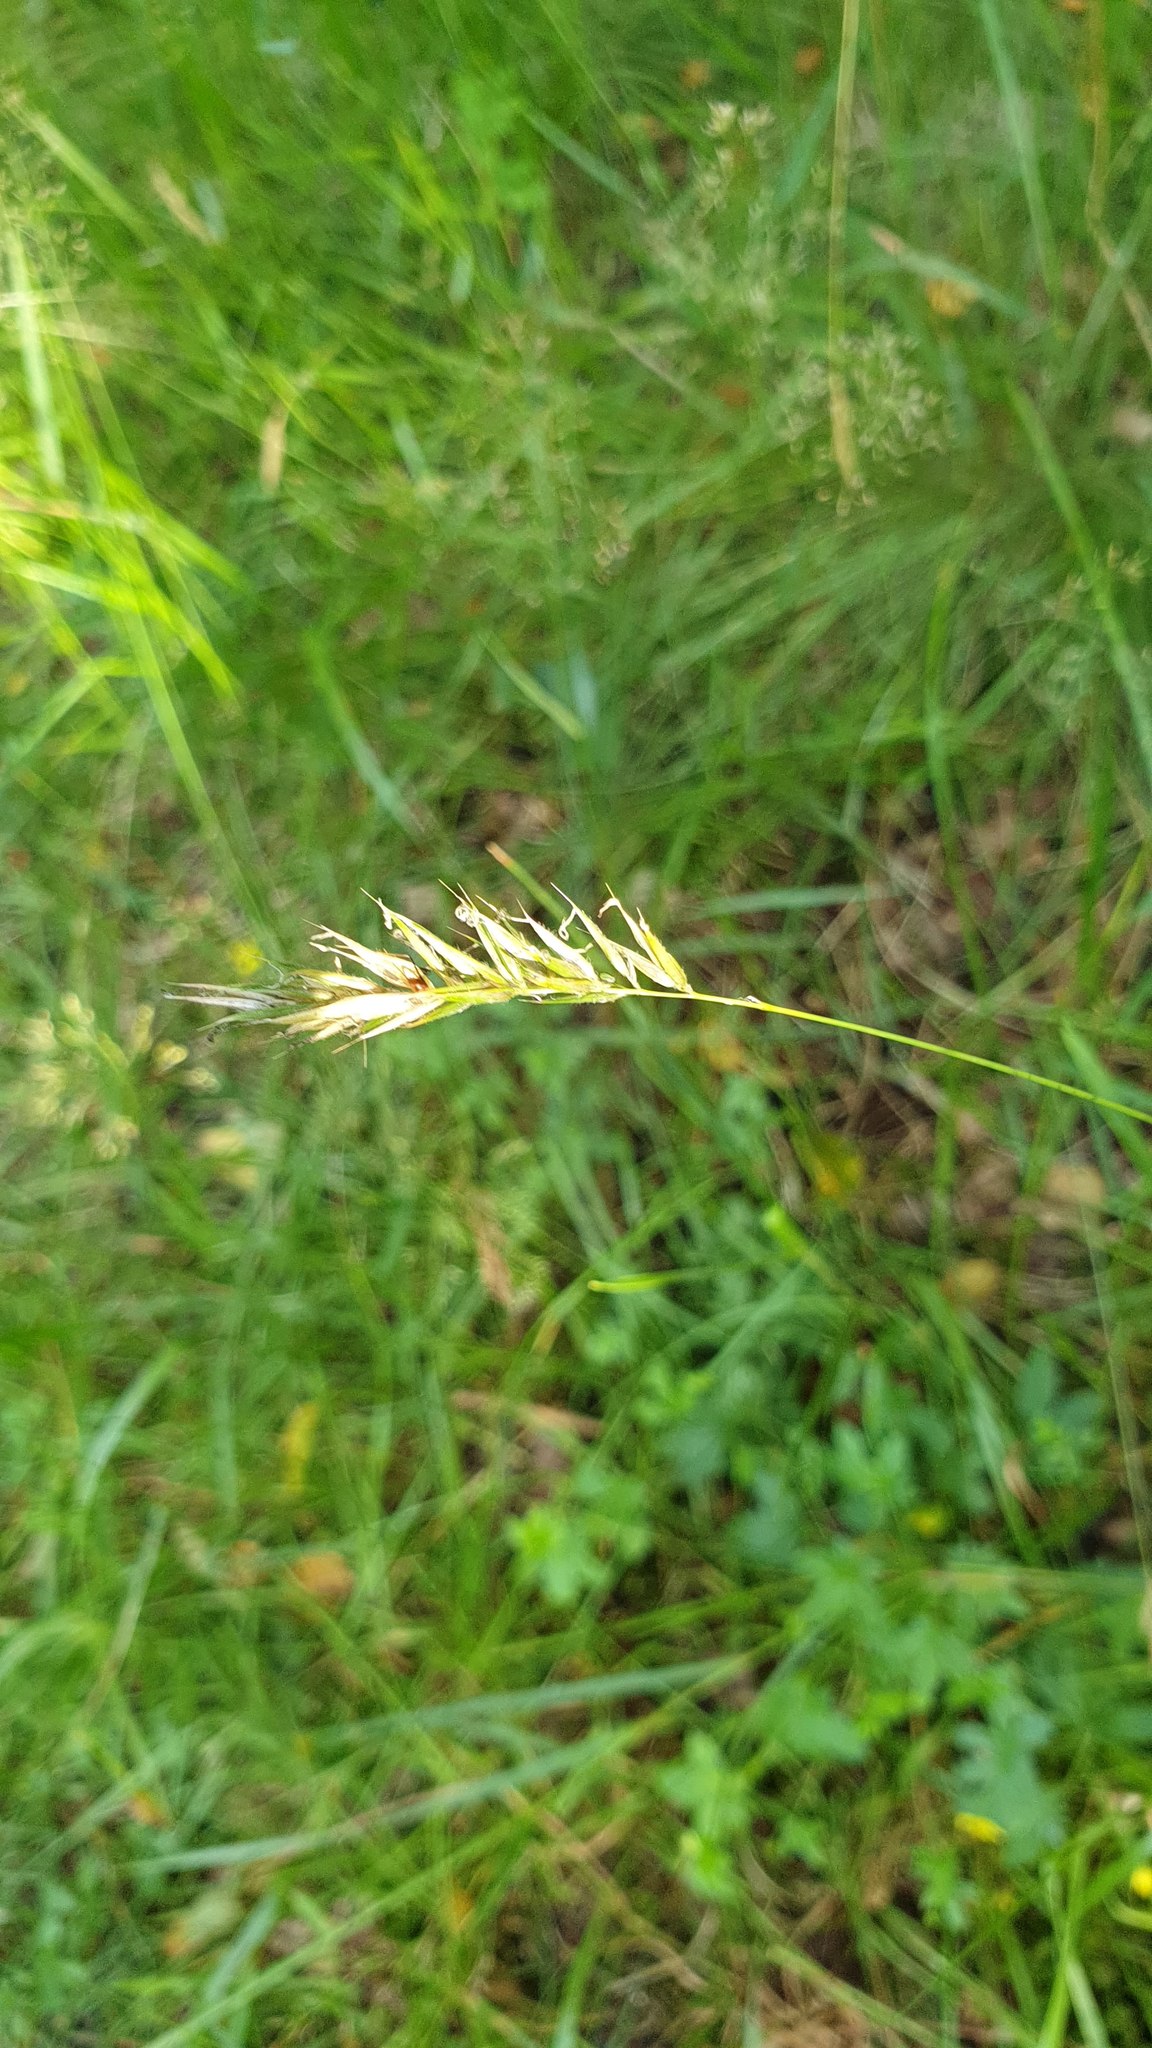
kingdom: Plantae
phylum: Tracheophyta
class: Liliopsida
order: Poales
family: Poaceae
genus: Anthoxanthum
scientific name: Anthoxanthum odoratum
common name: Sweet vernalgrass
